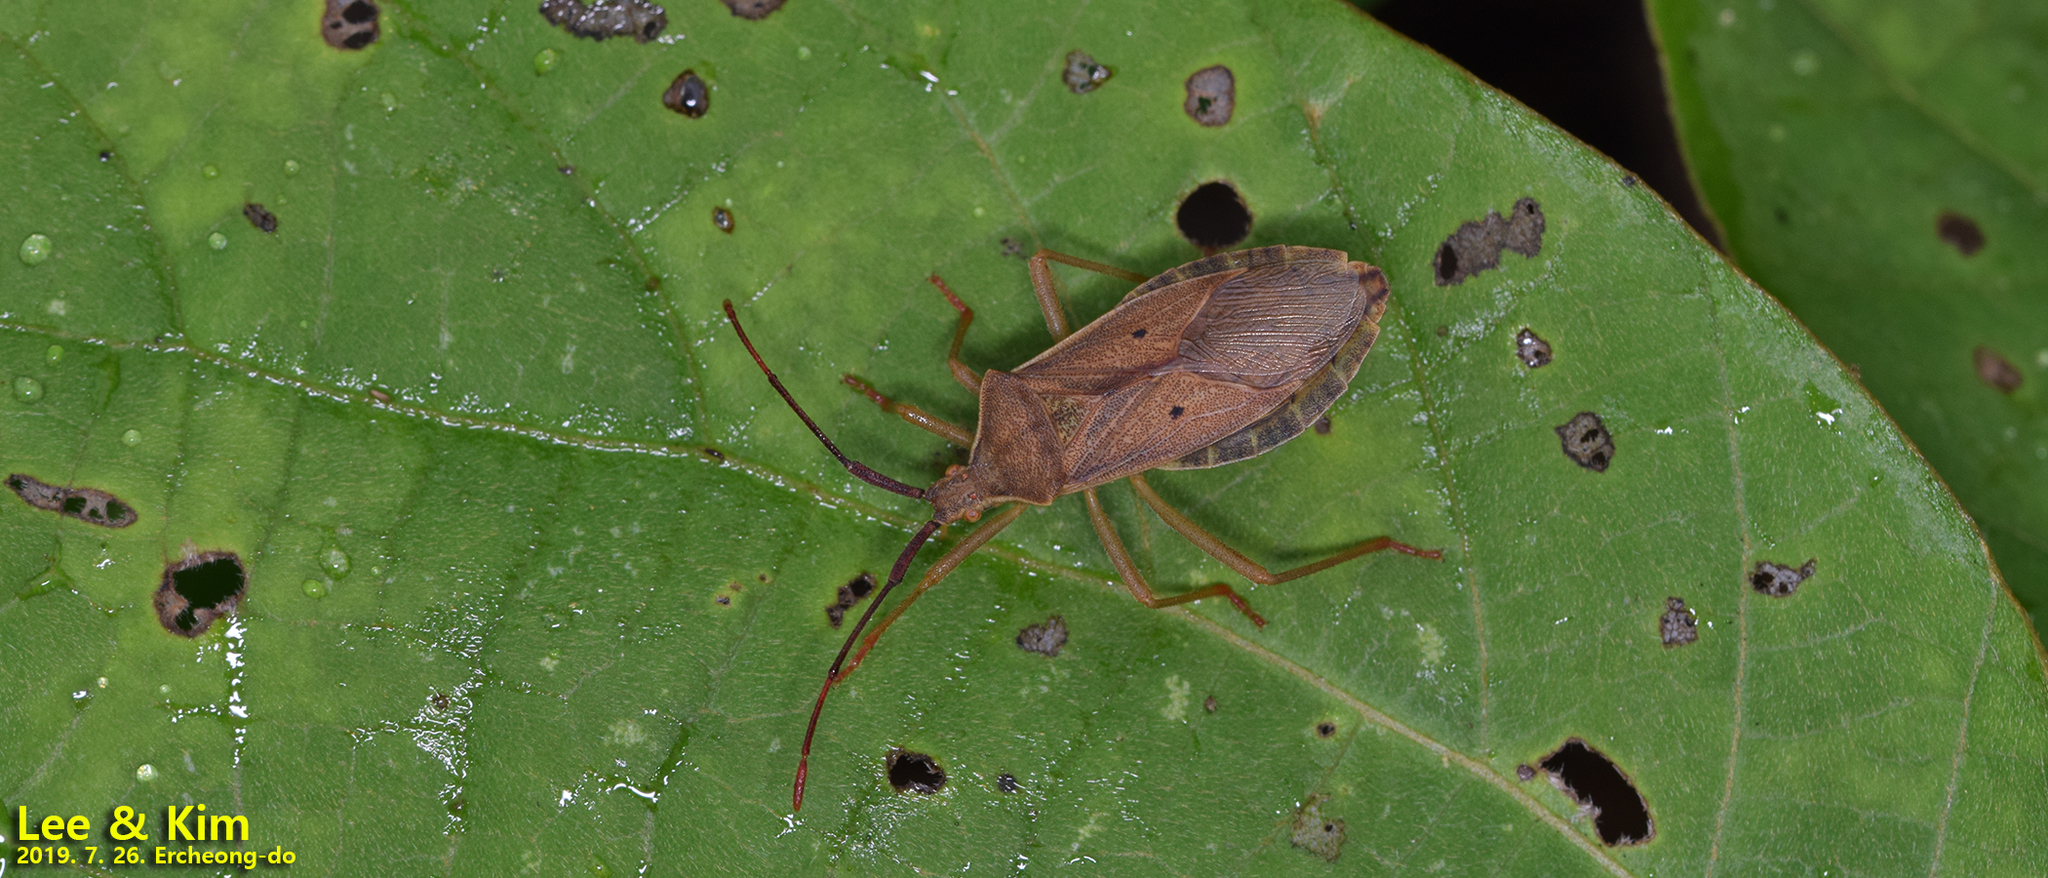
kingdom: Animalia
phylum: Arthropoda
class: Insecta
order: Hemiptera
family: Coreidae
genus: Homoeocerus
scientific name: Homoeocerus unipunctatus
